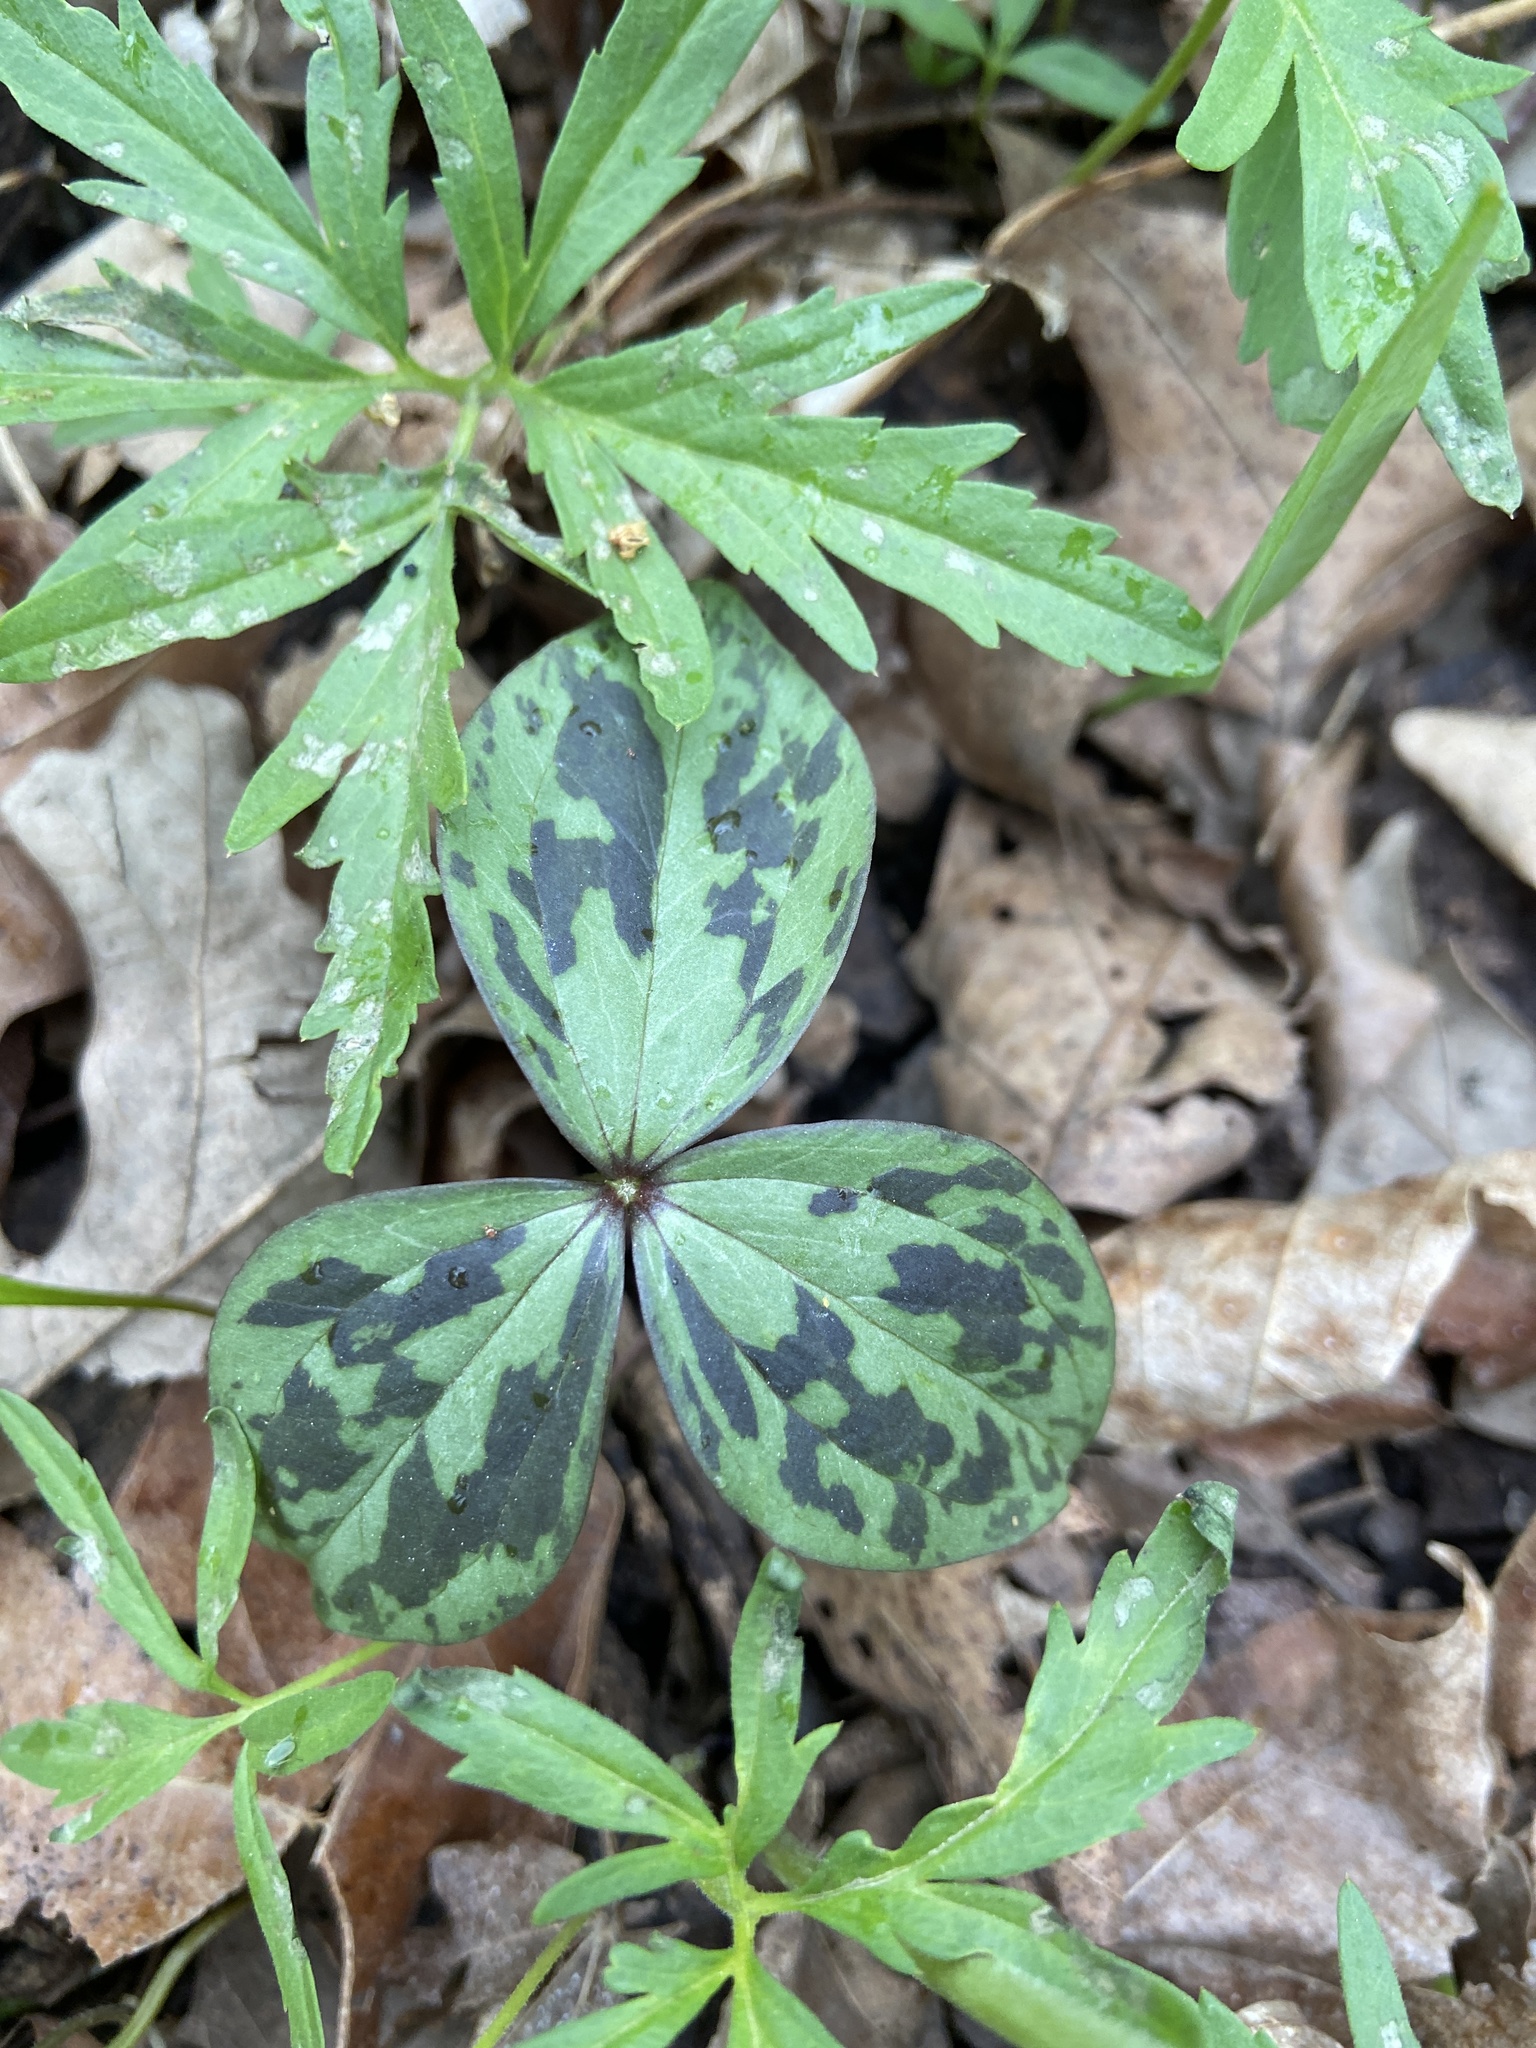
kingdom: Plantae
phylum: Tracheophyta
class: Liliopsida
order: Liliales
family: Melanthiaceae
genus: Trillium
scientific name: Trillium recurvatum
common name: Bloody butcher
